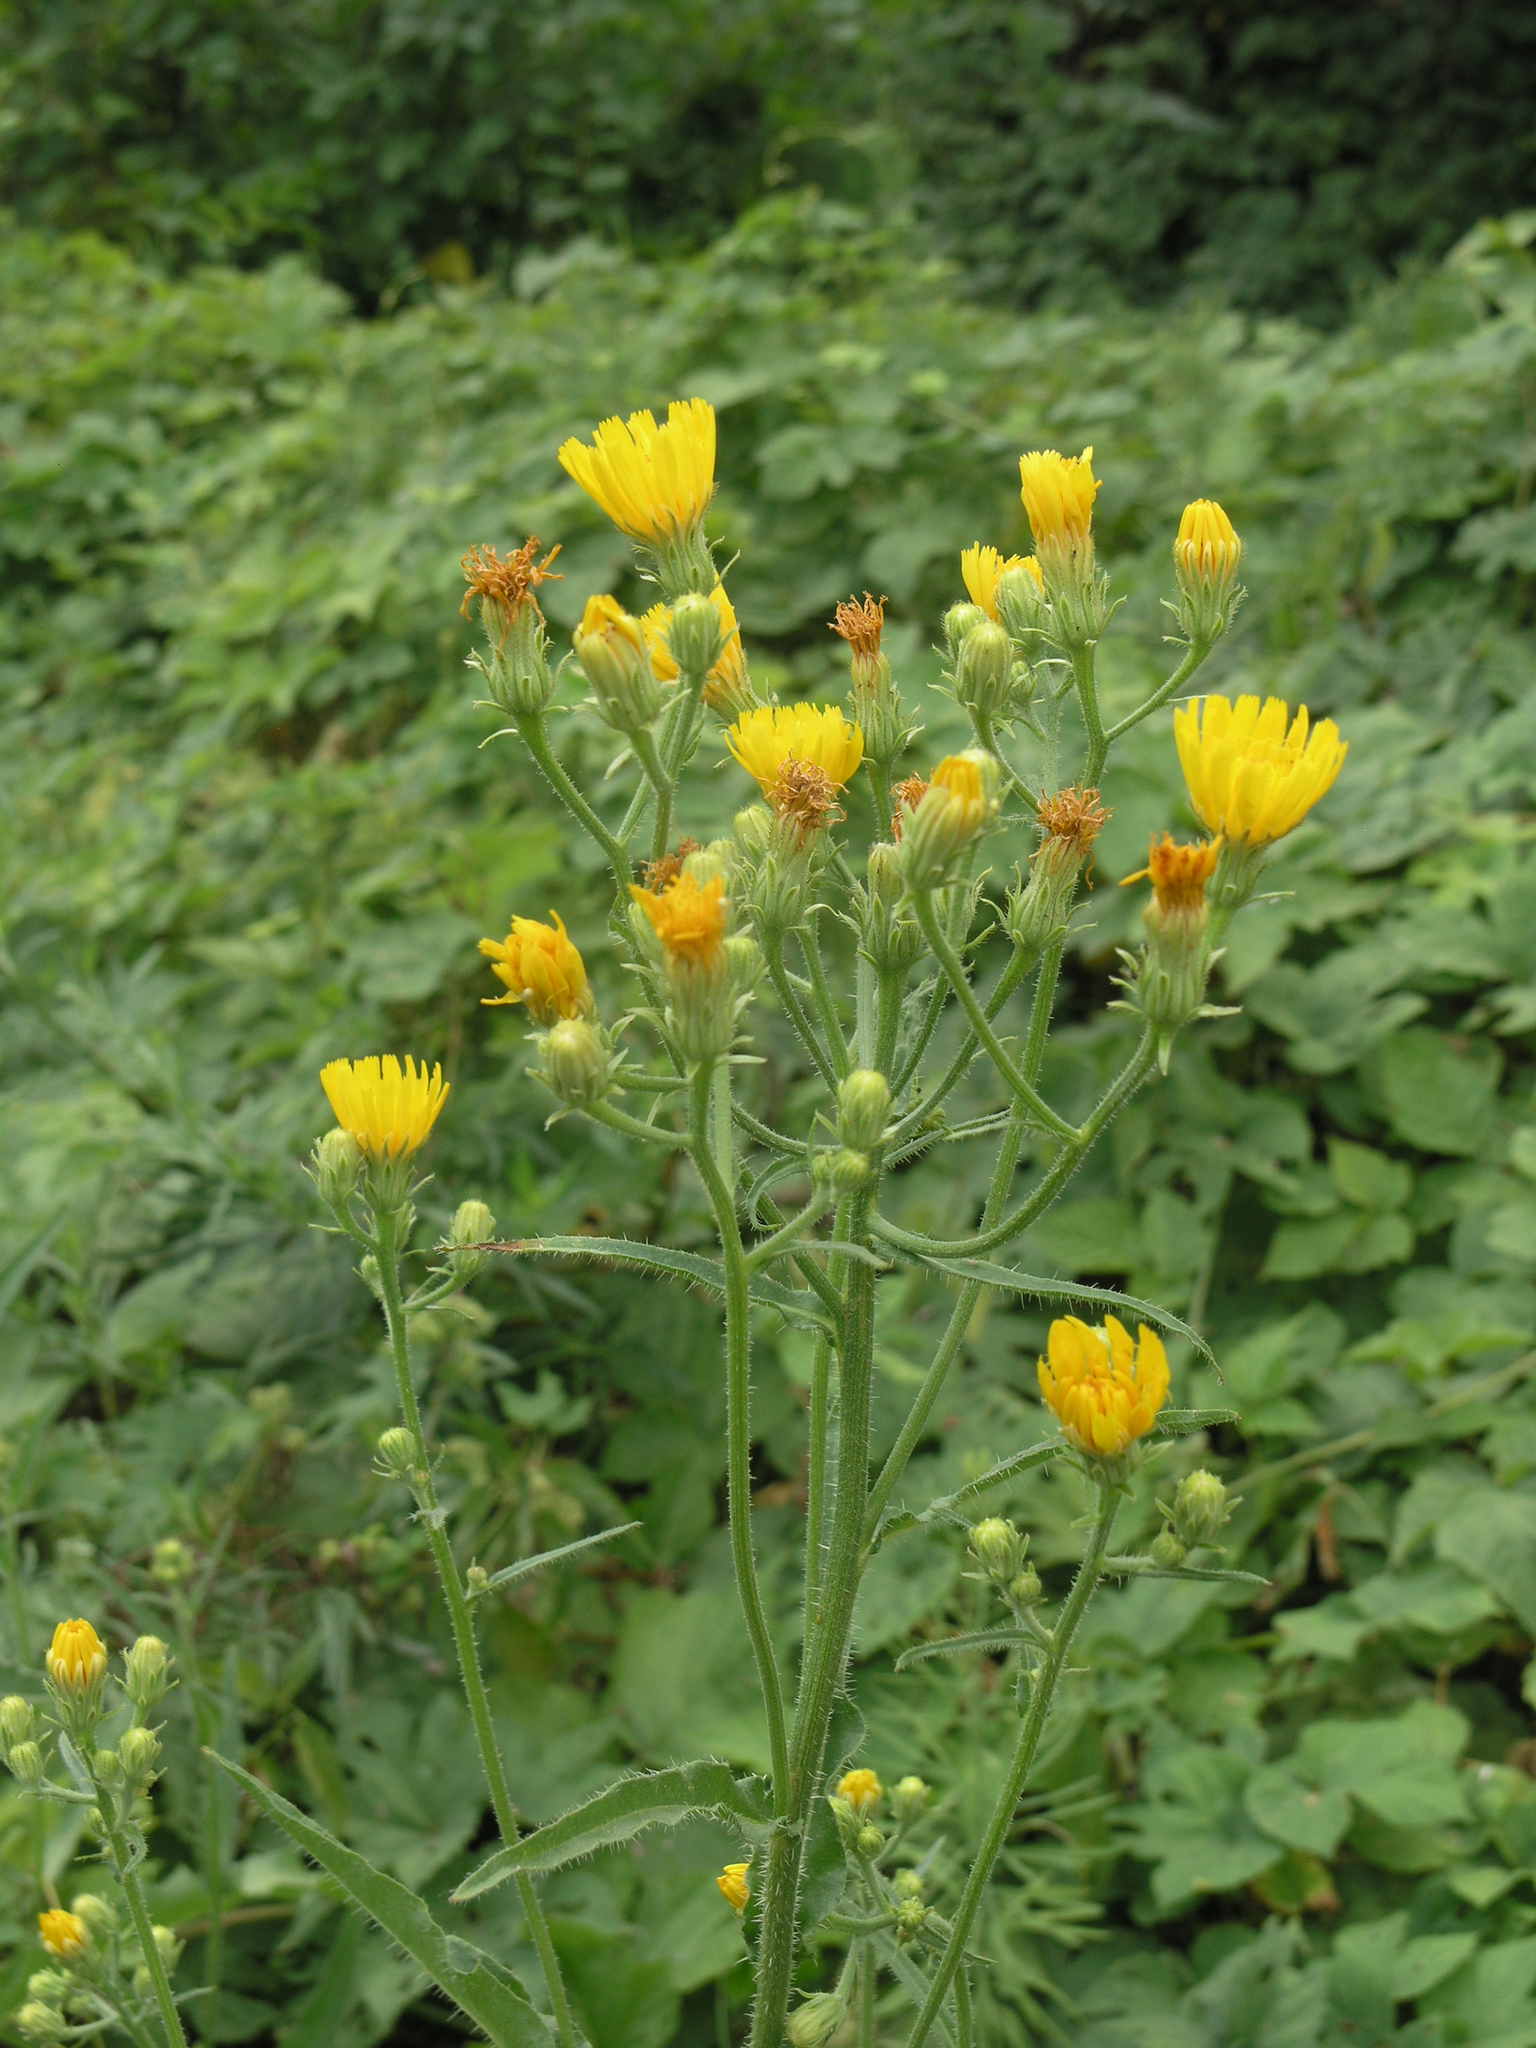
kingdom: Plantae
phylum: Tracheophyta
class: Magnoliopsida
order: Asterales
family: Asteraceae
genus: Picris
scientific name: Picris hieracioides
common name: Hawkweed oxtongue
